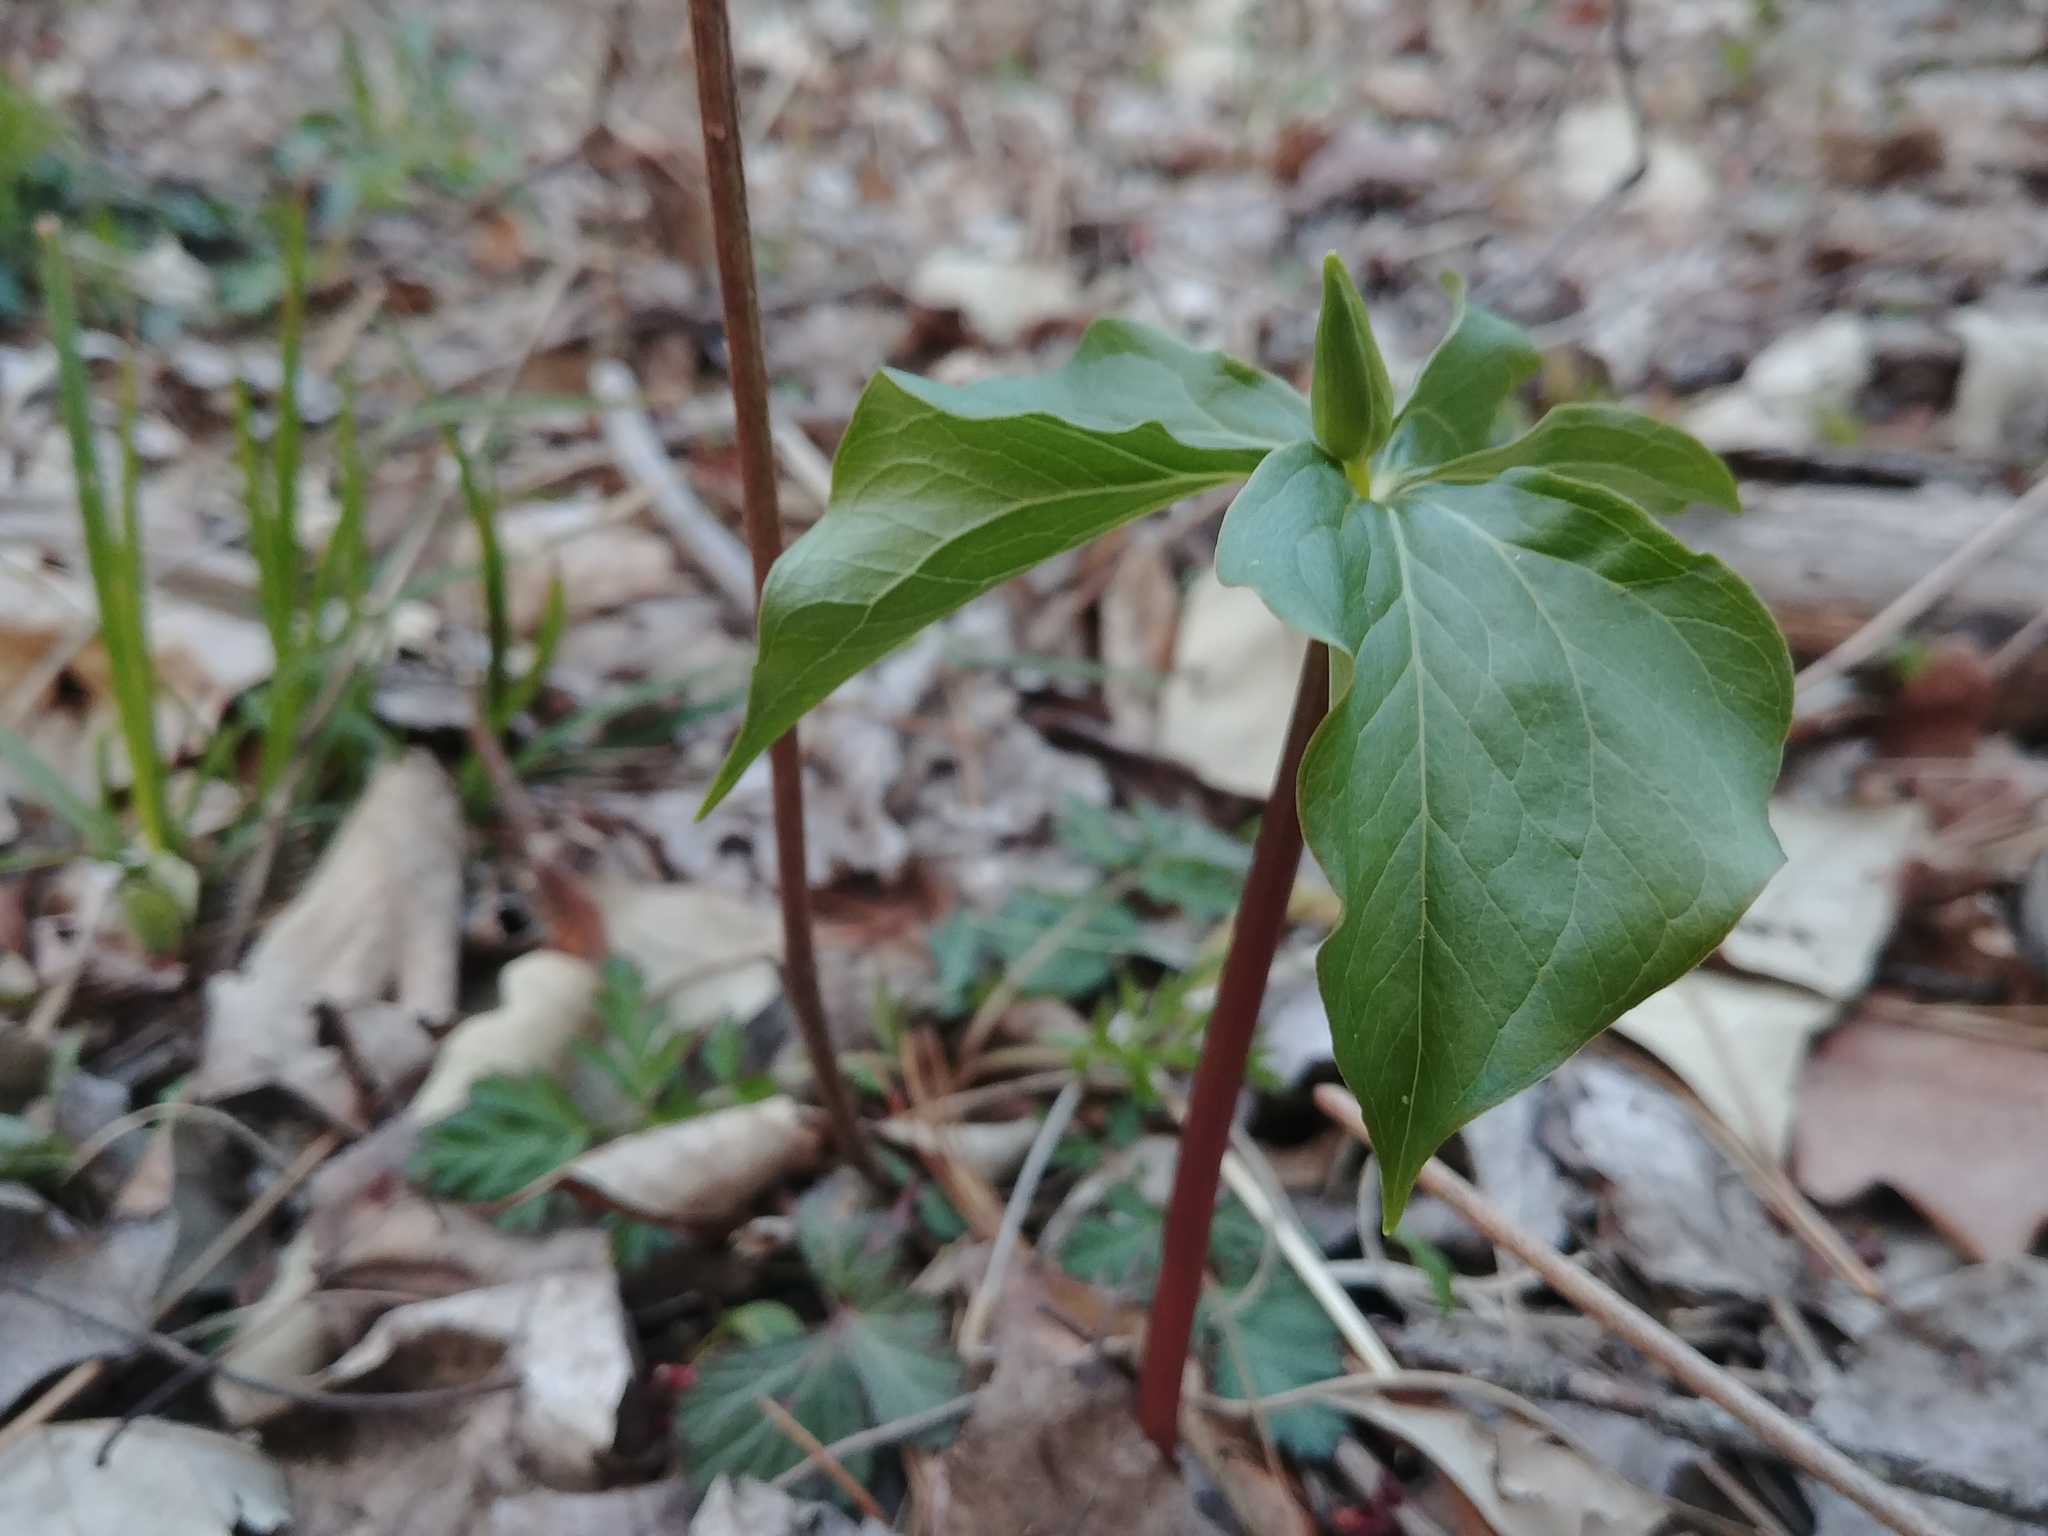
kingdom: Plantae
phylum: Tracheophyta
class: Liliopsida
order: Liliales
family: Melanthiaceae
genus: Trillium
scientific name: Trillium cernuum
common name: Nodding trillium
